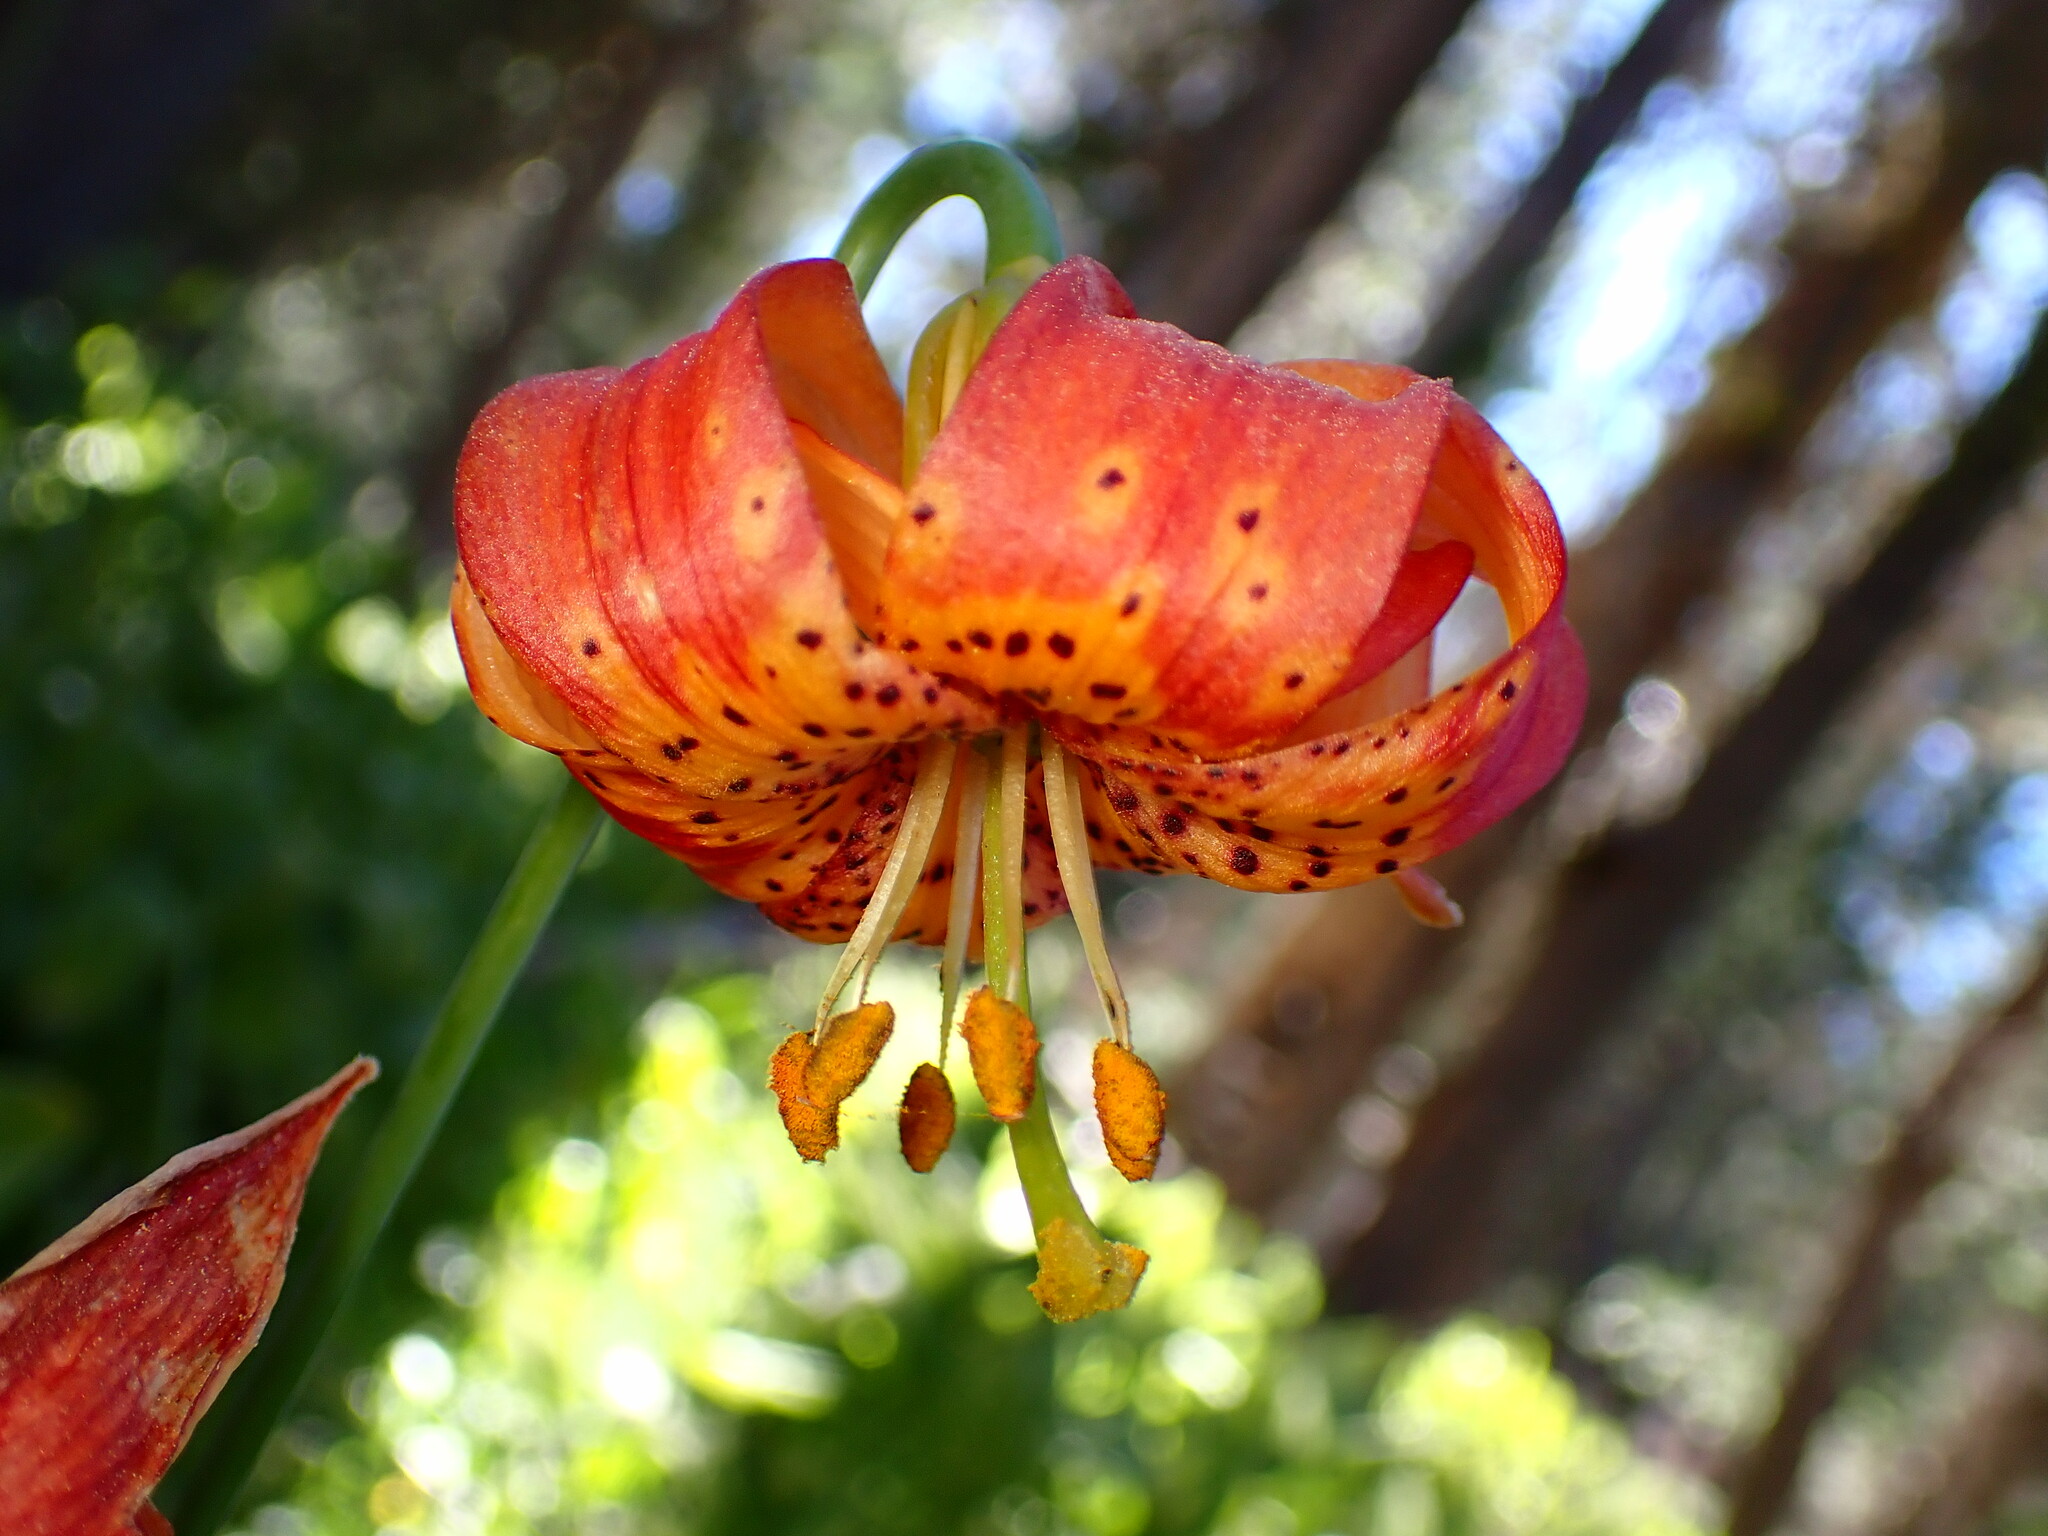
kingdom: Plantae
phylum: Tracheophyta
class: Liliopsida
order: Liliales
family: Liliaceae
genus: Lilium
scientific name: Lilium pardalinum
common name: Panther lily
